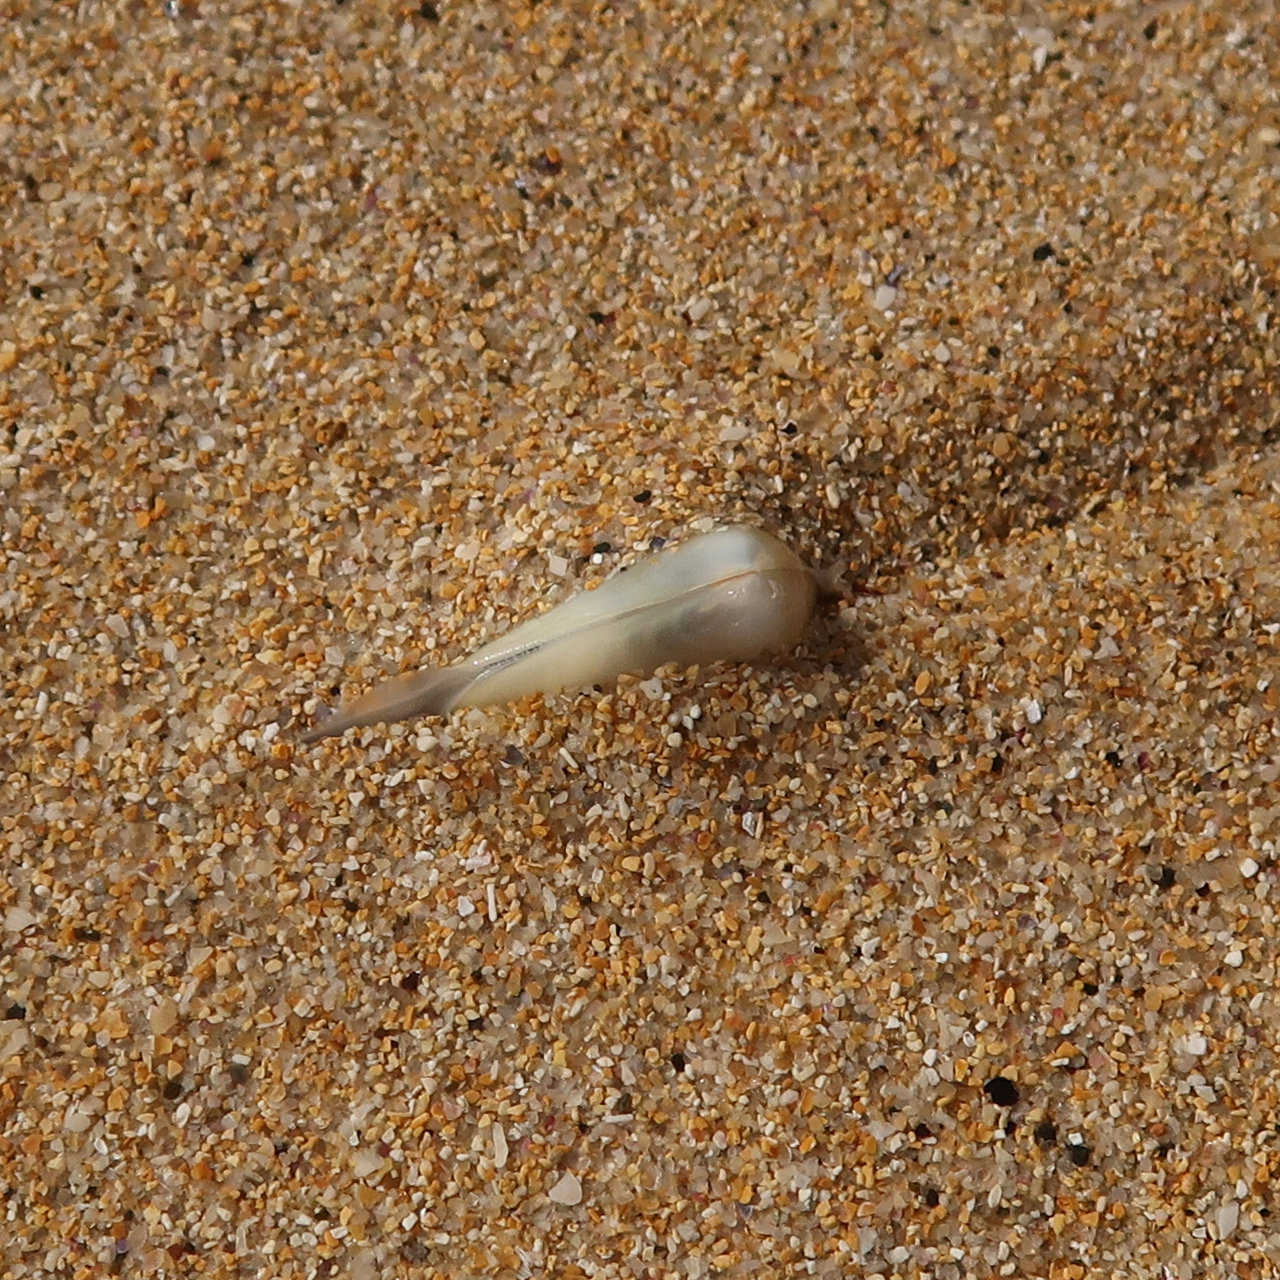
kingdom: Animalia
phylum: Mollusca
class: Bivalvia
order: Venerida
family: Mesodesmatidae
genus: Paphies
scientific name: Paphies angusta
